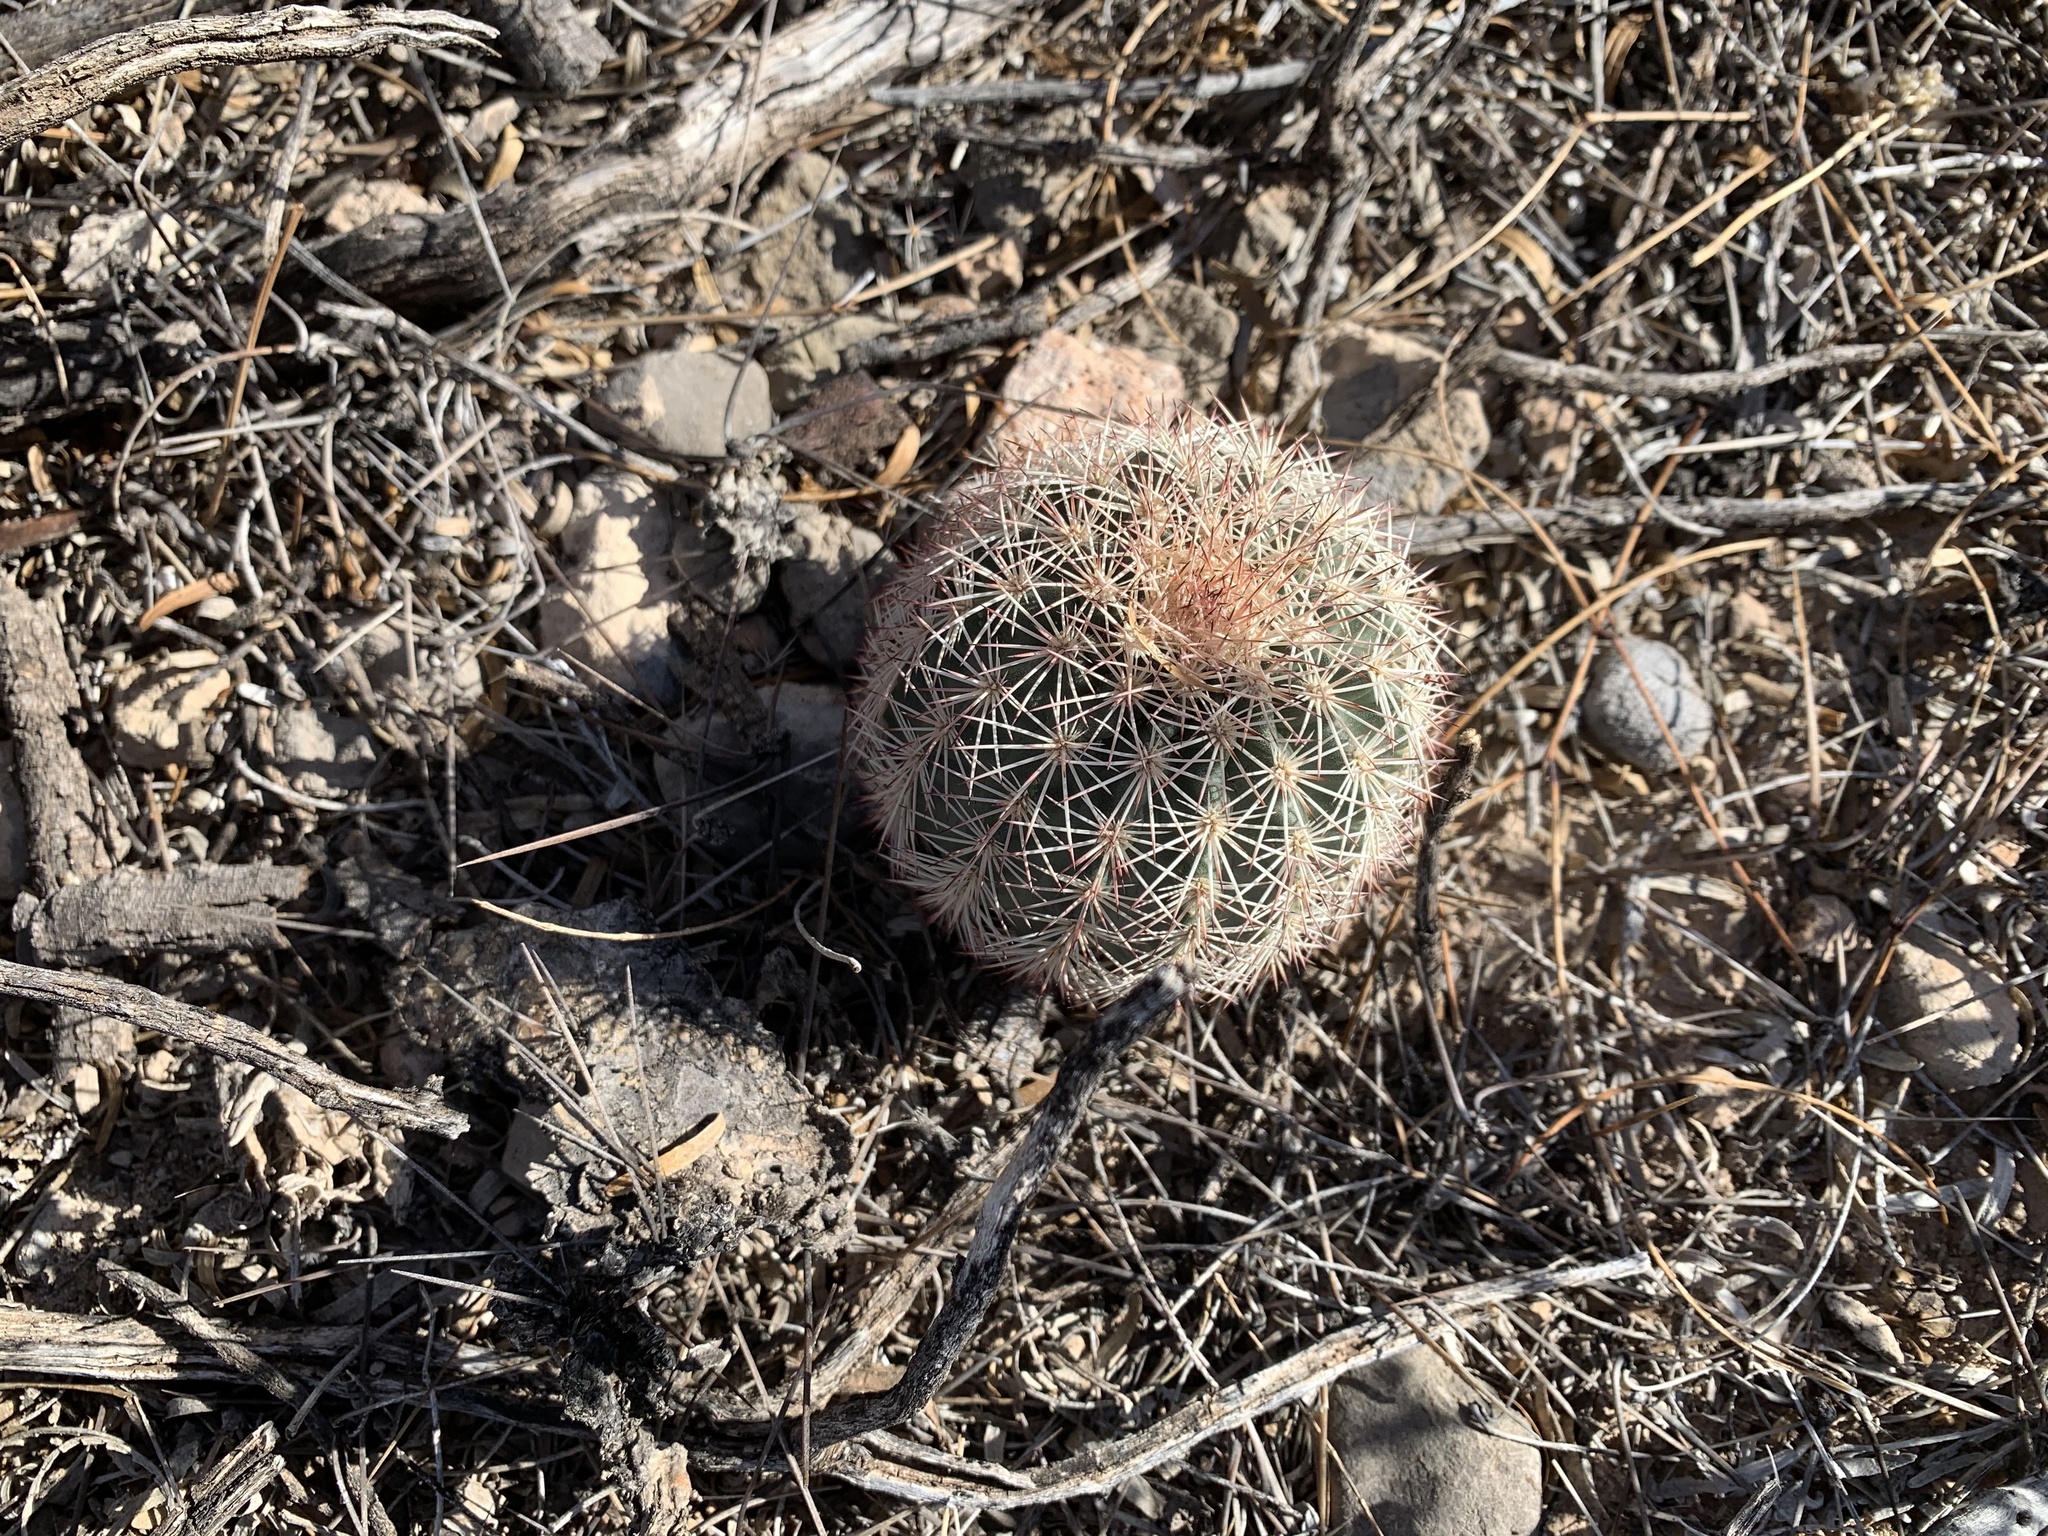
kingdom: Plantae
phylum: Tracheophyta
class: Magnoliopsida
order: Caryophyllales
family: Cactaceae
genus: Echinocereus
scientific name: Echinocereus dasyacanthus
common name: Spiny hedgehog cactus
